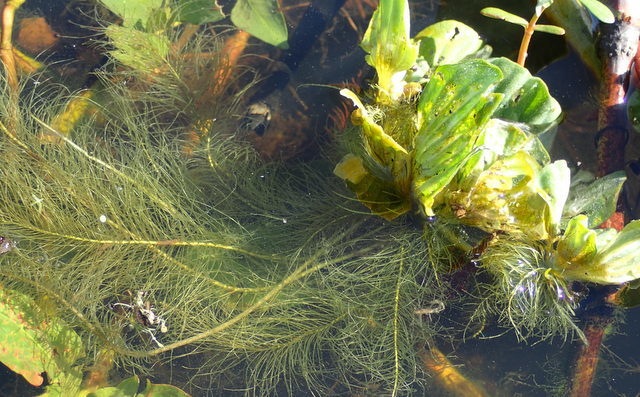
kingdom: Plantae
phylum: Tracheophyta
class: Liliopsida
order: Alismatales
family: Araceae
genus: Pistia
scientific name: Pistia stratiotes
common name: Water lettuce
